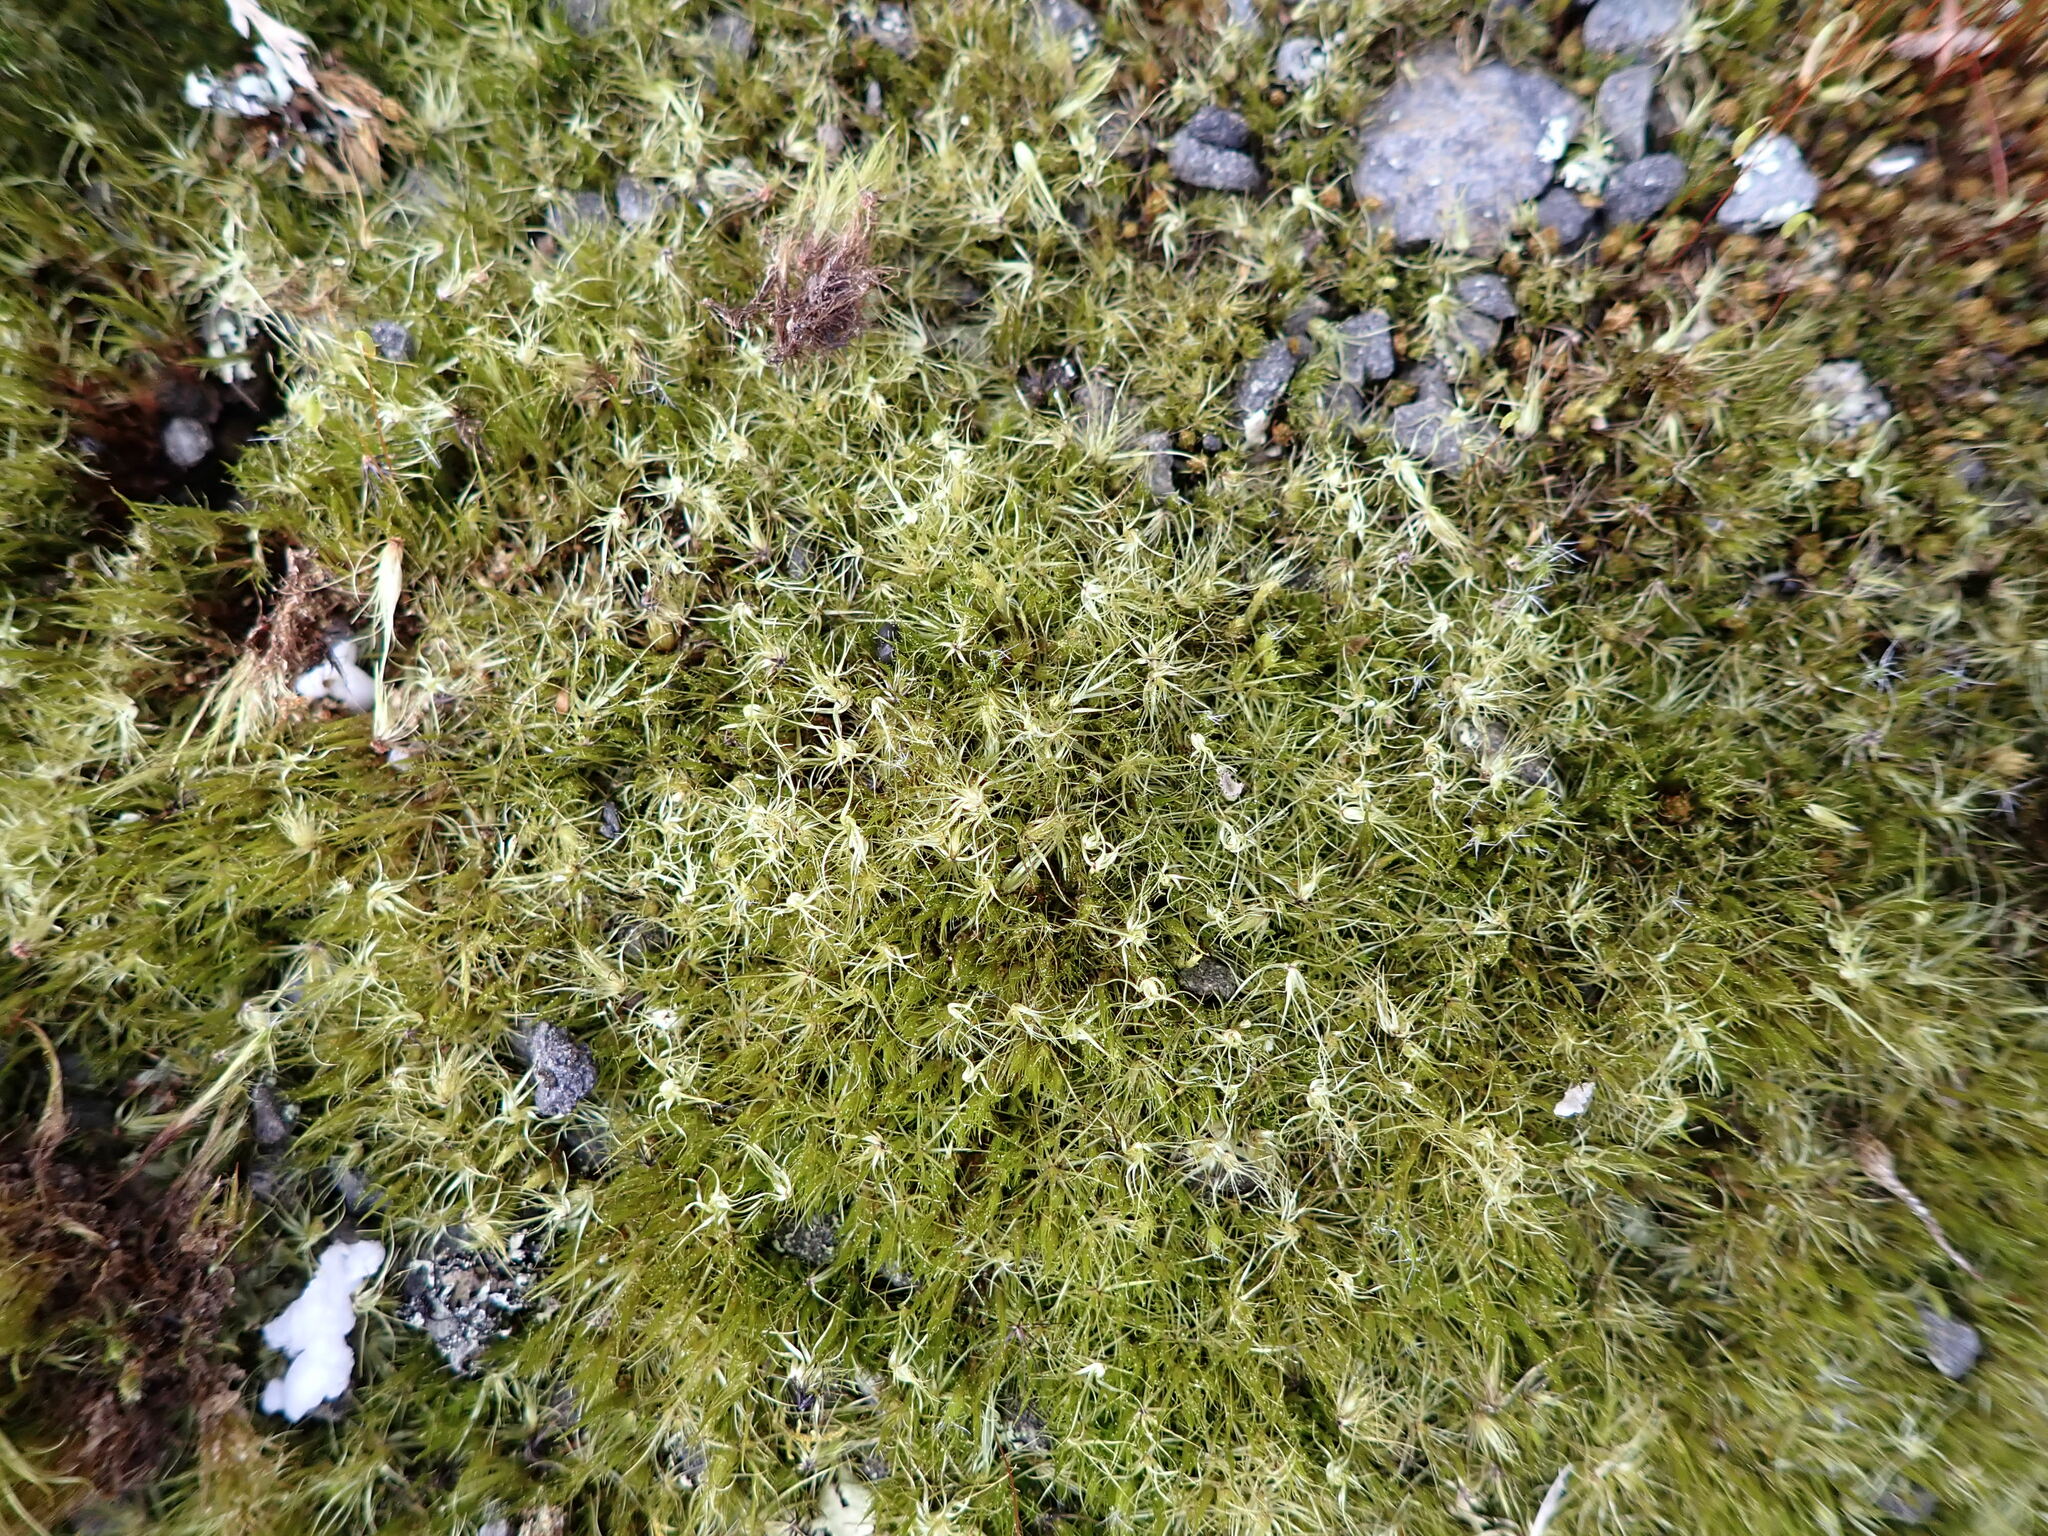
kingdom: Plantae
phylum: Bryophyta
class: Bryopsida
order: Dicranales
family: Leucobryaceae
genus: Campylopus
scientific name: Campylopus clavatus
